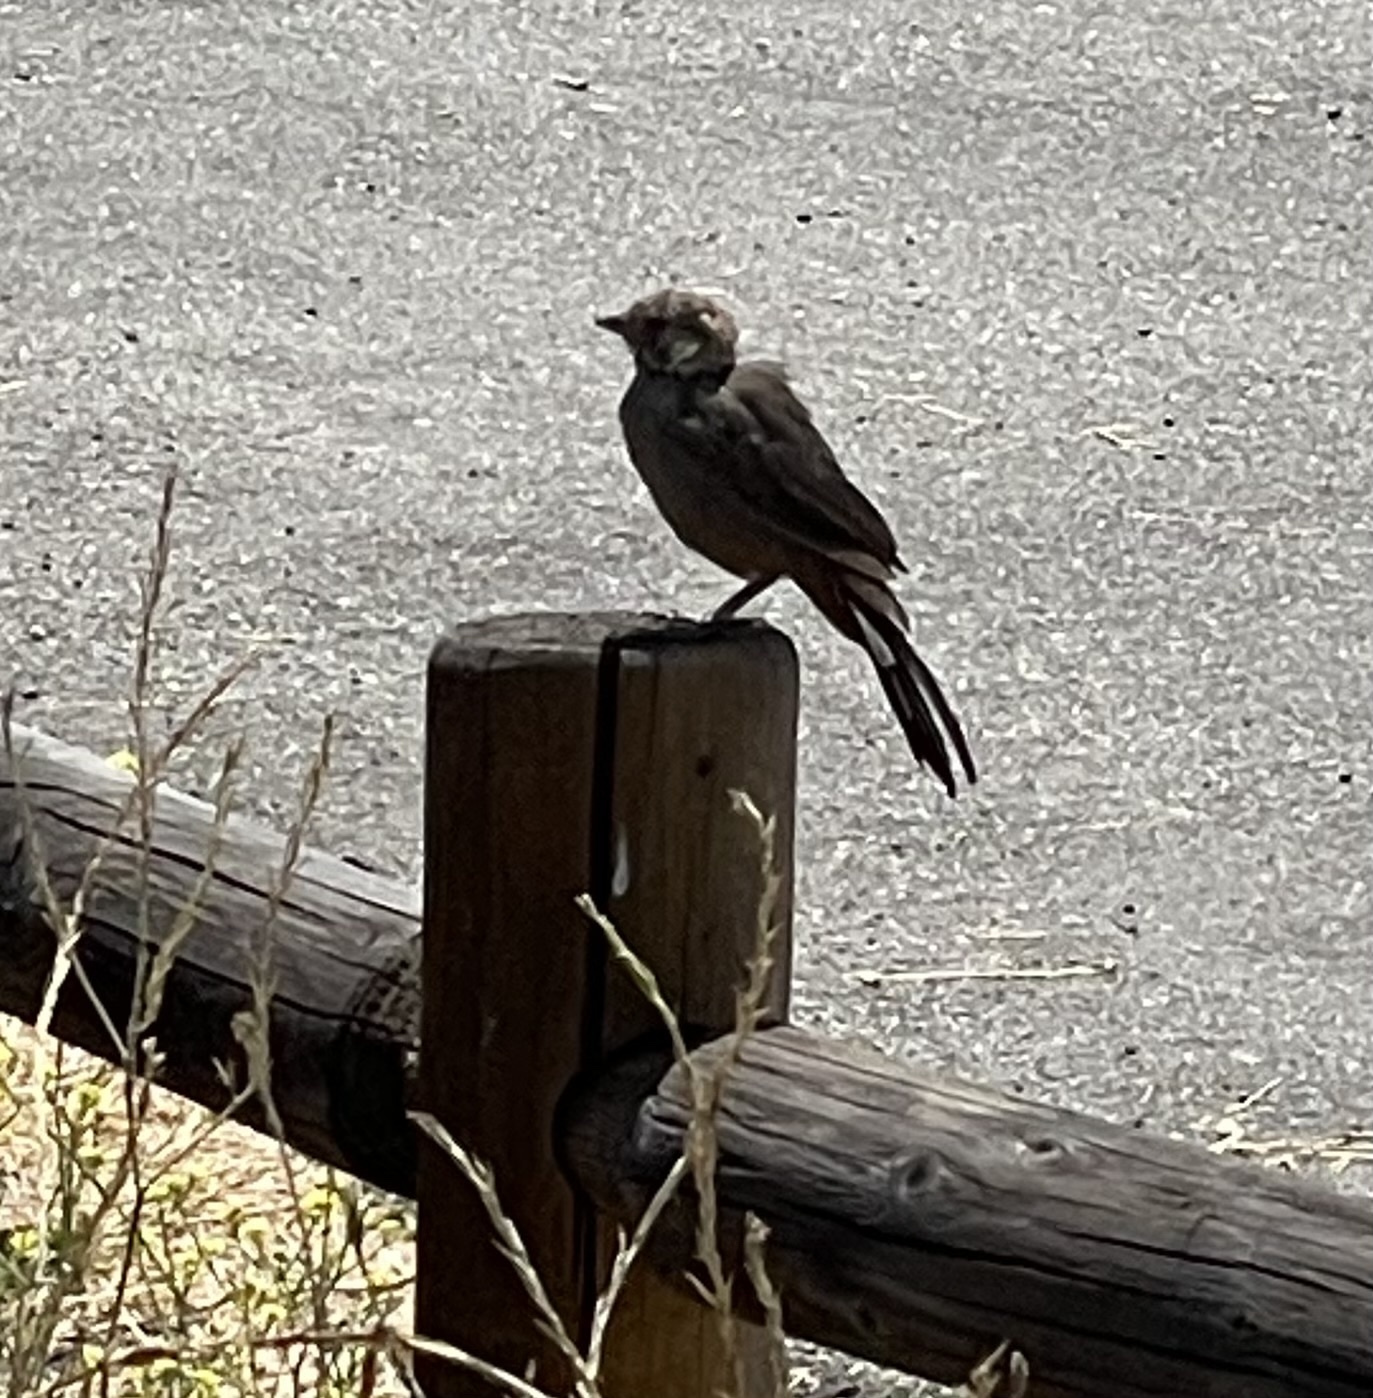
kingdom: Animalia
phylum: Chordata
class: Aves
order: Passeriformes
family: Passerellidae
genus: Melozone
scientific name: Melozone crissalis
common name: California towhee
